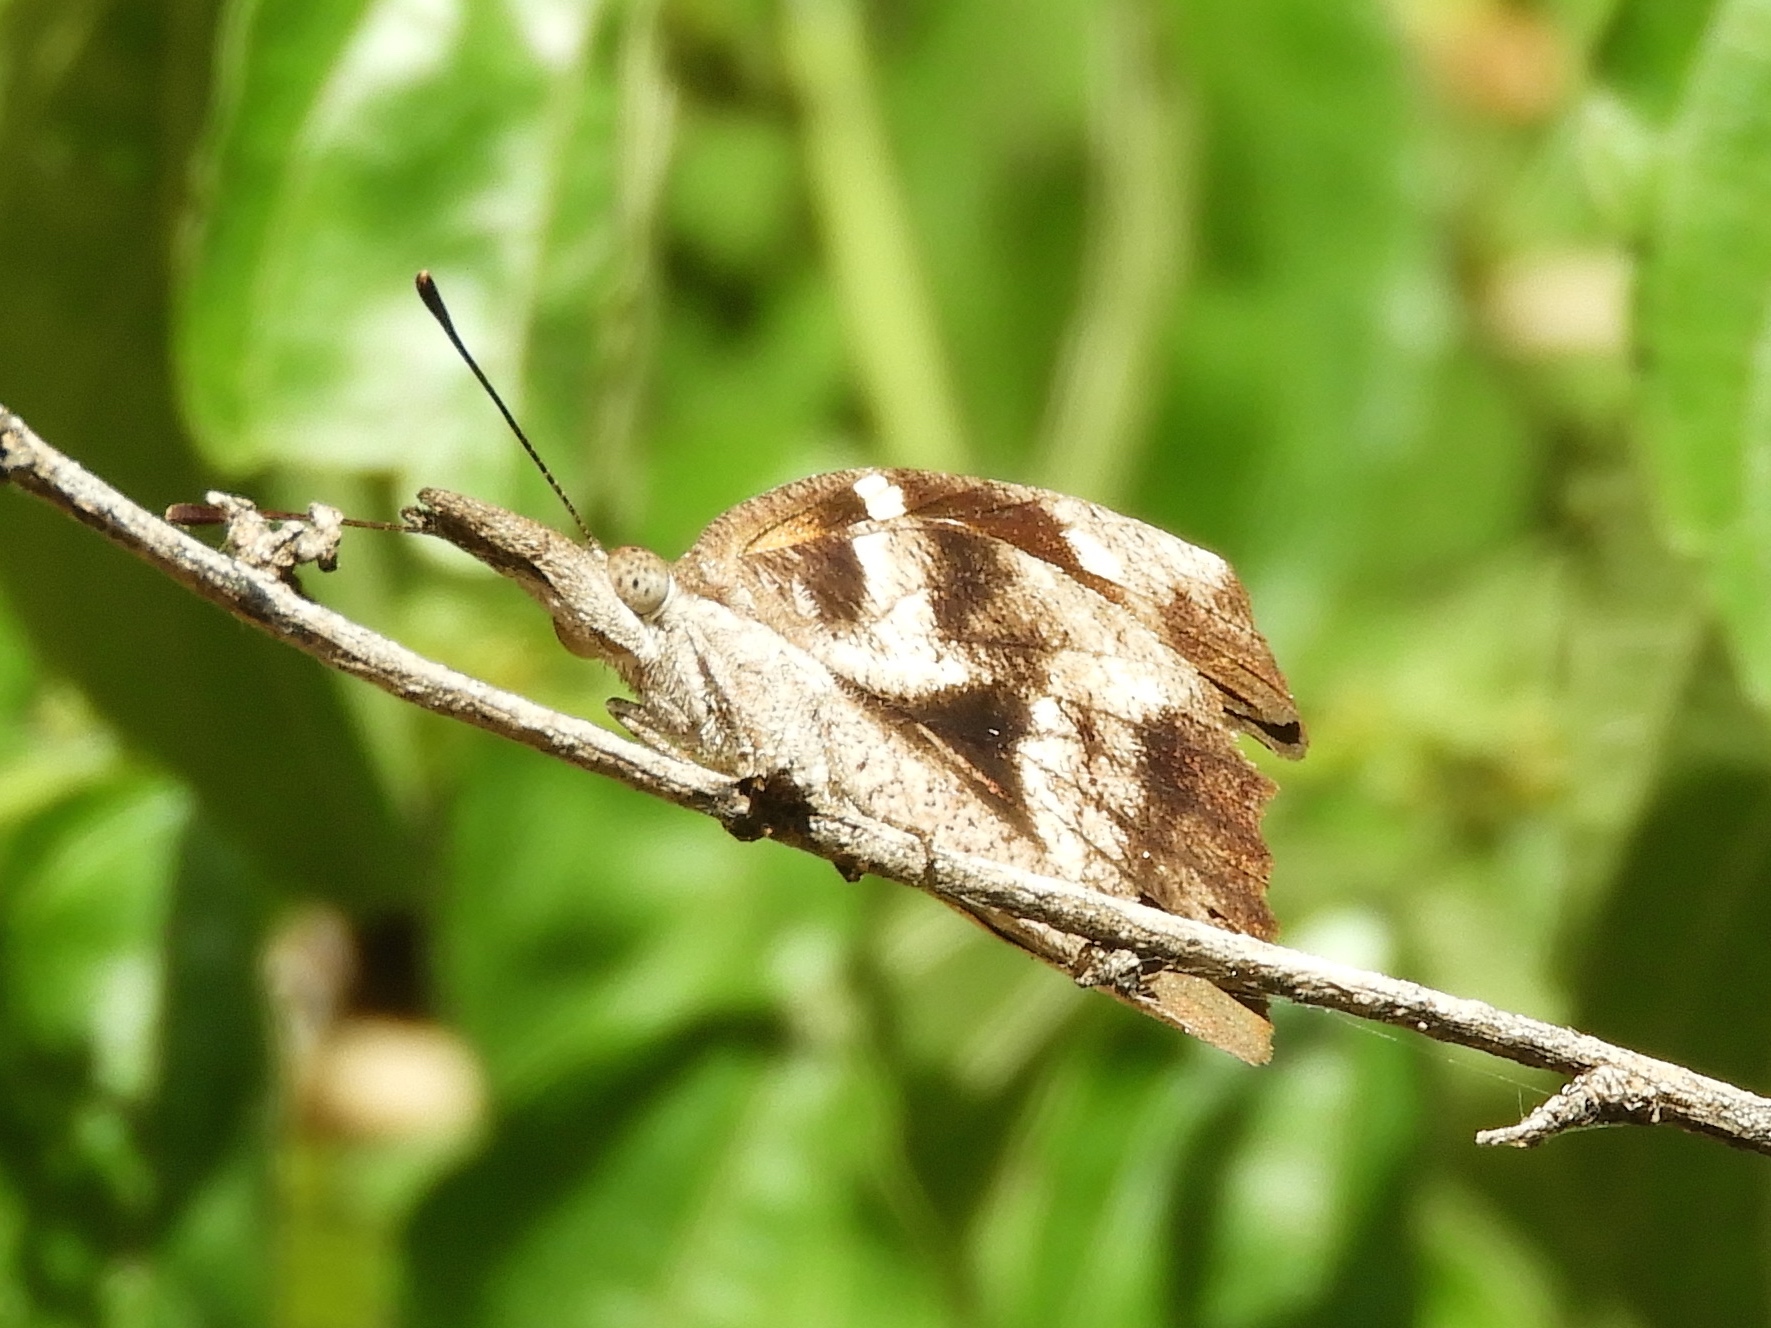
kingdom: Animalia
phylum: Arthropoda
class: Insecta
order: Lepidoptera
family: Nymphalidae
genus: Libytheana
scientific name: Libytheana carinenta
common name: American snout
